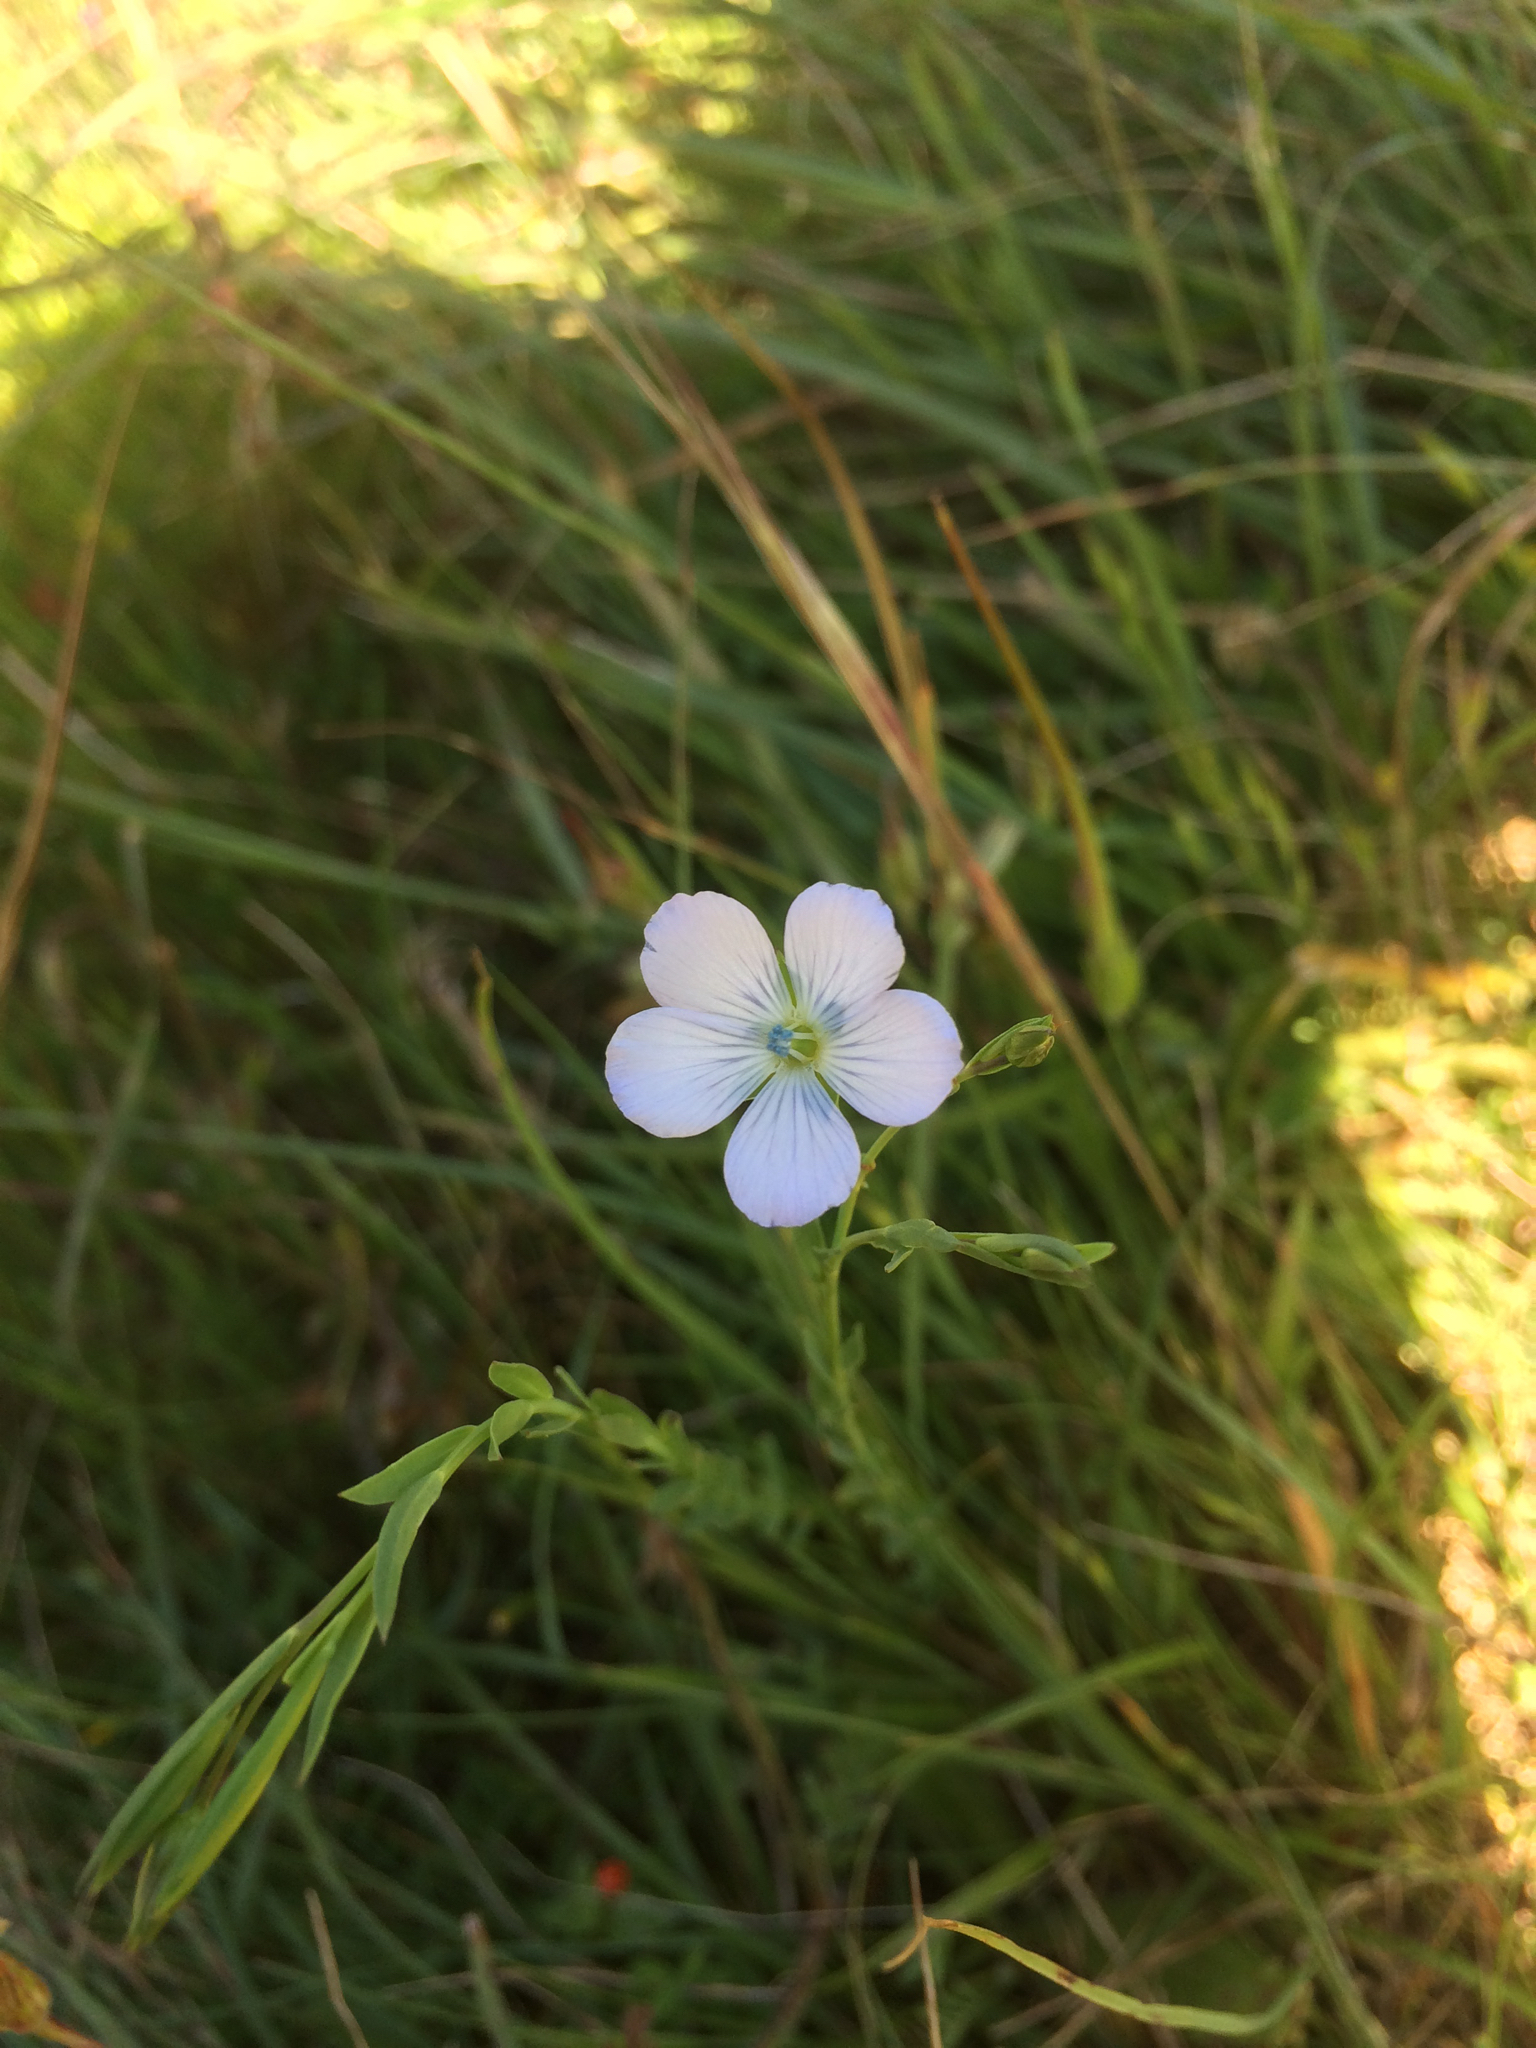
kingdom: Plantae
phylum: Tracheophyta
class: Magnoliopsida
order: Malpighiales
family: Linaceae
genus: Linum
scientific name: Linum bienne
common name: Pale flax
